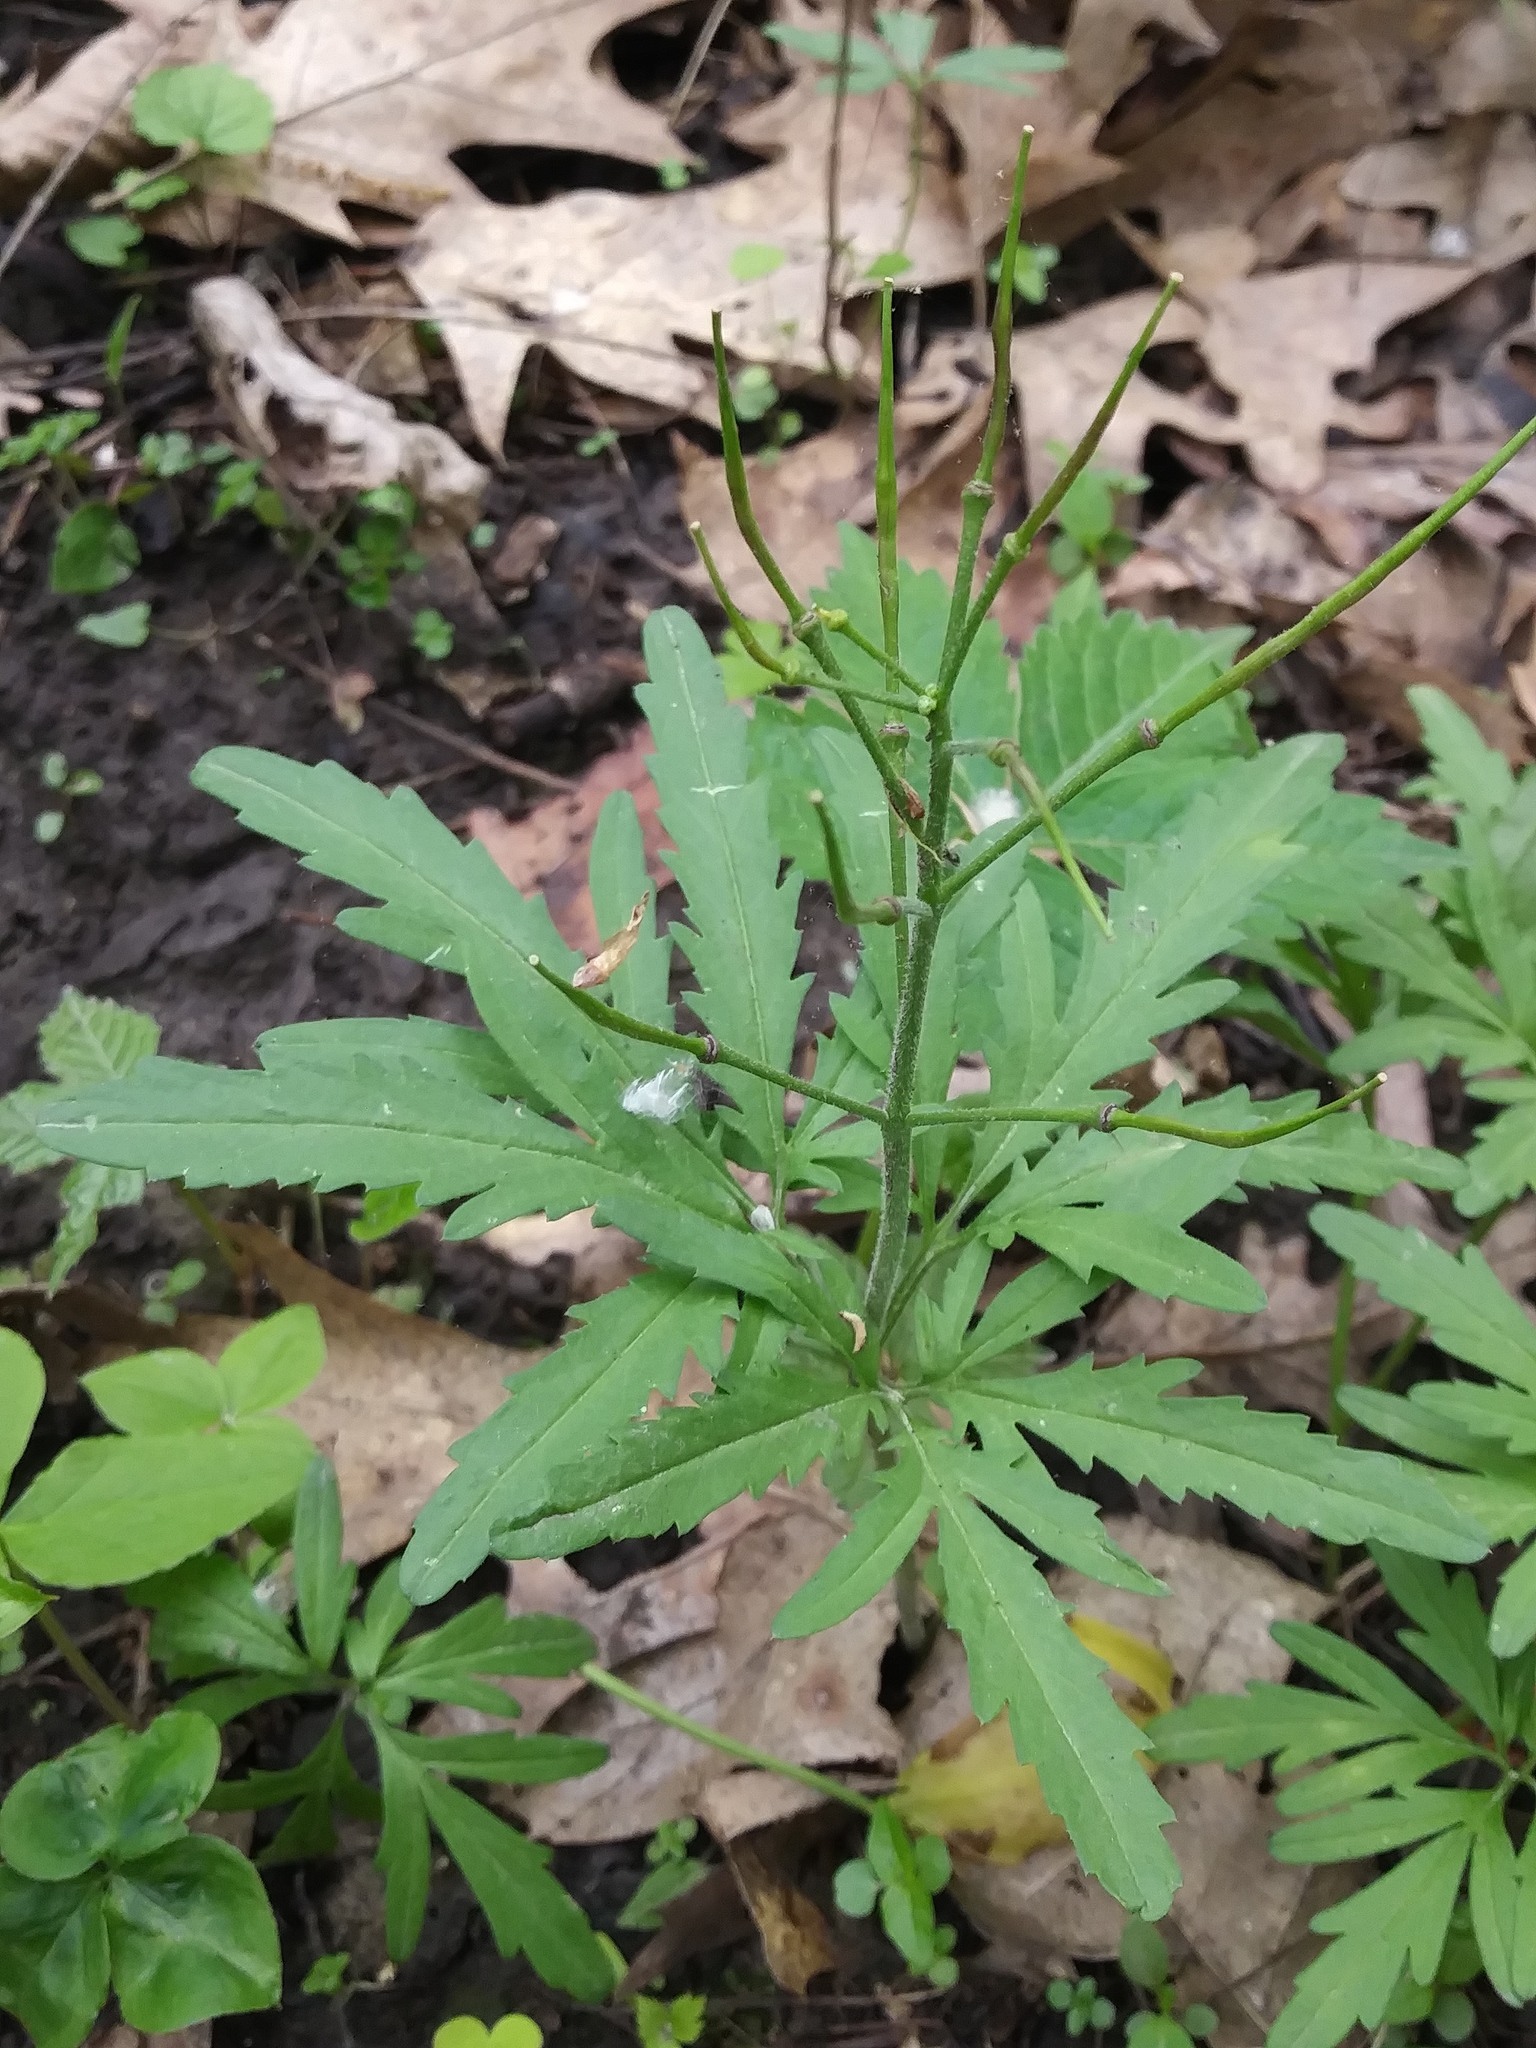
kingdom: Plantae
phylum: Tracheophyta
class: Magnoliopsida
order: Brassicales
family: Brassicaceae
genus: Cardamine
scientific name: Cardamine concatenata
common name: Cut-leaf toothcup
